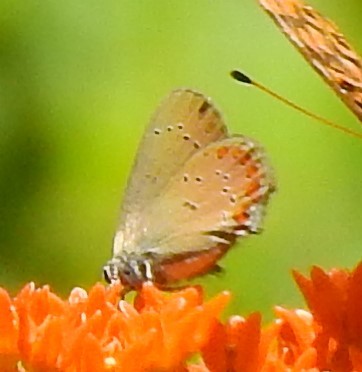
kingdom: Animalia
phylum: Arthropoda
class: Insecta
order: Lepidoptera
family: Lycaenidae
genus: Harkenclenus
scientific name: Harkenclenus titus
